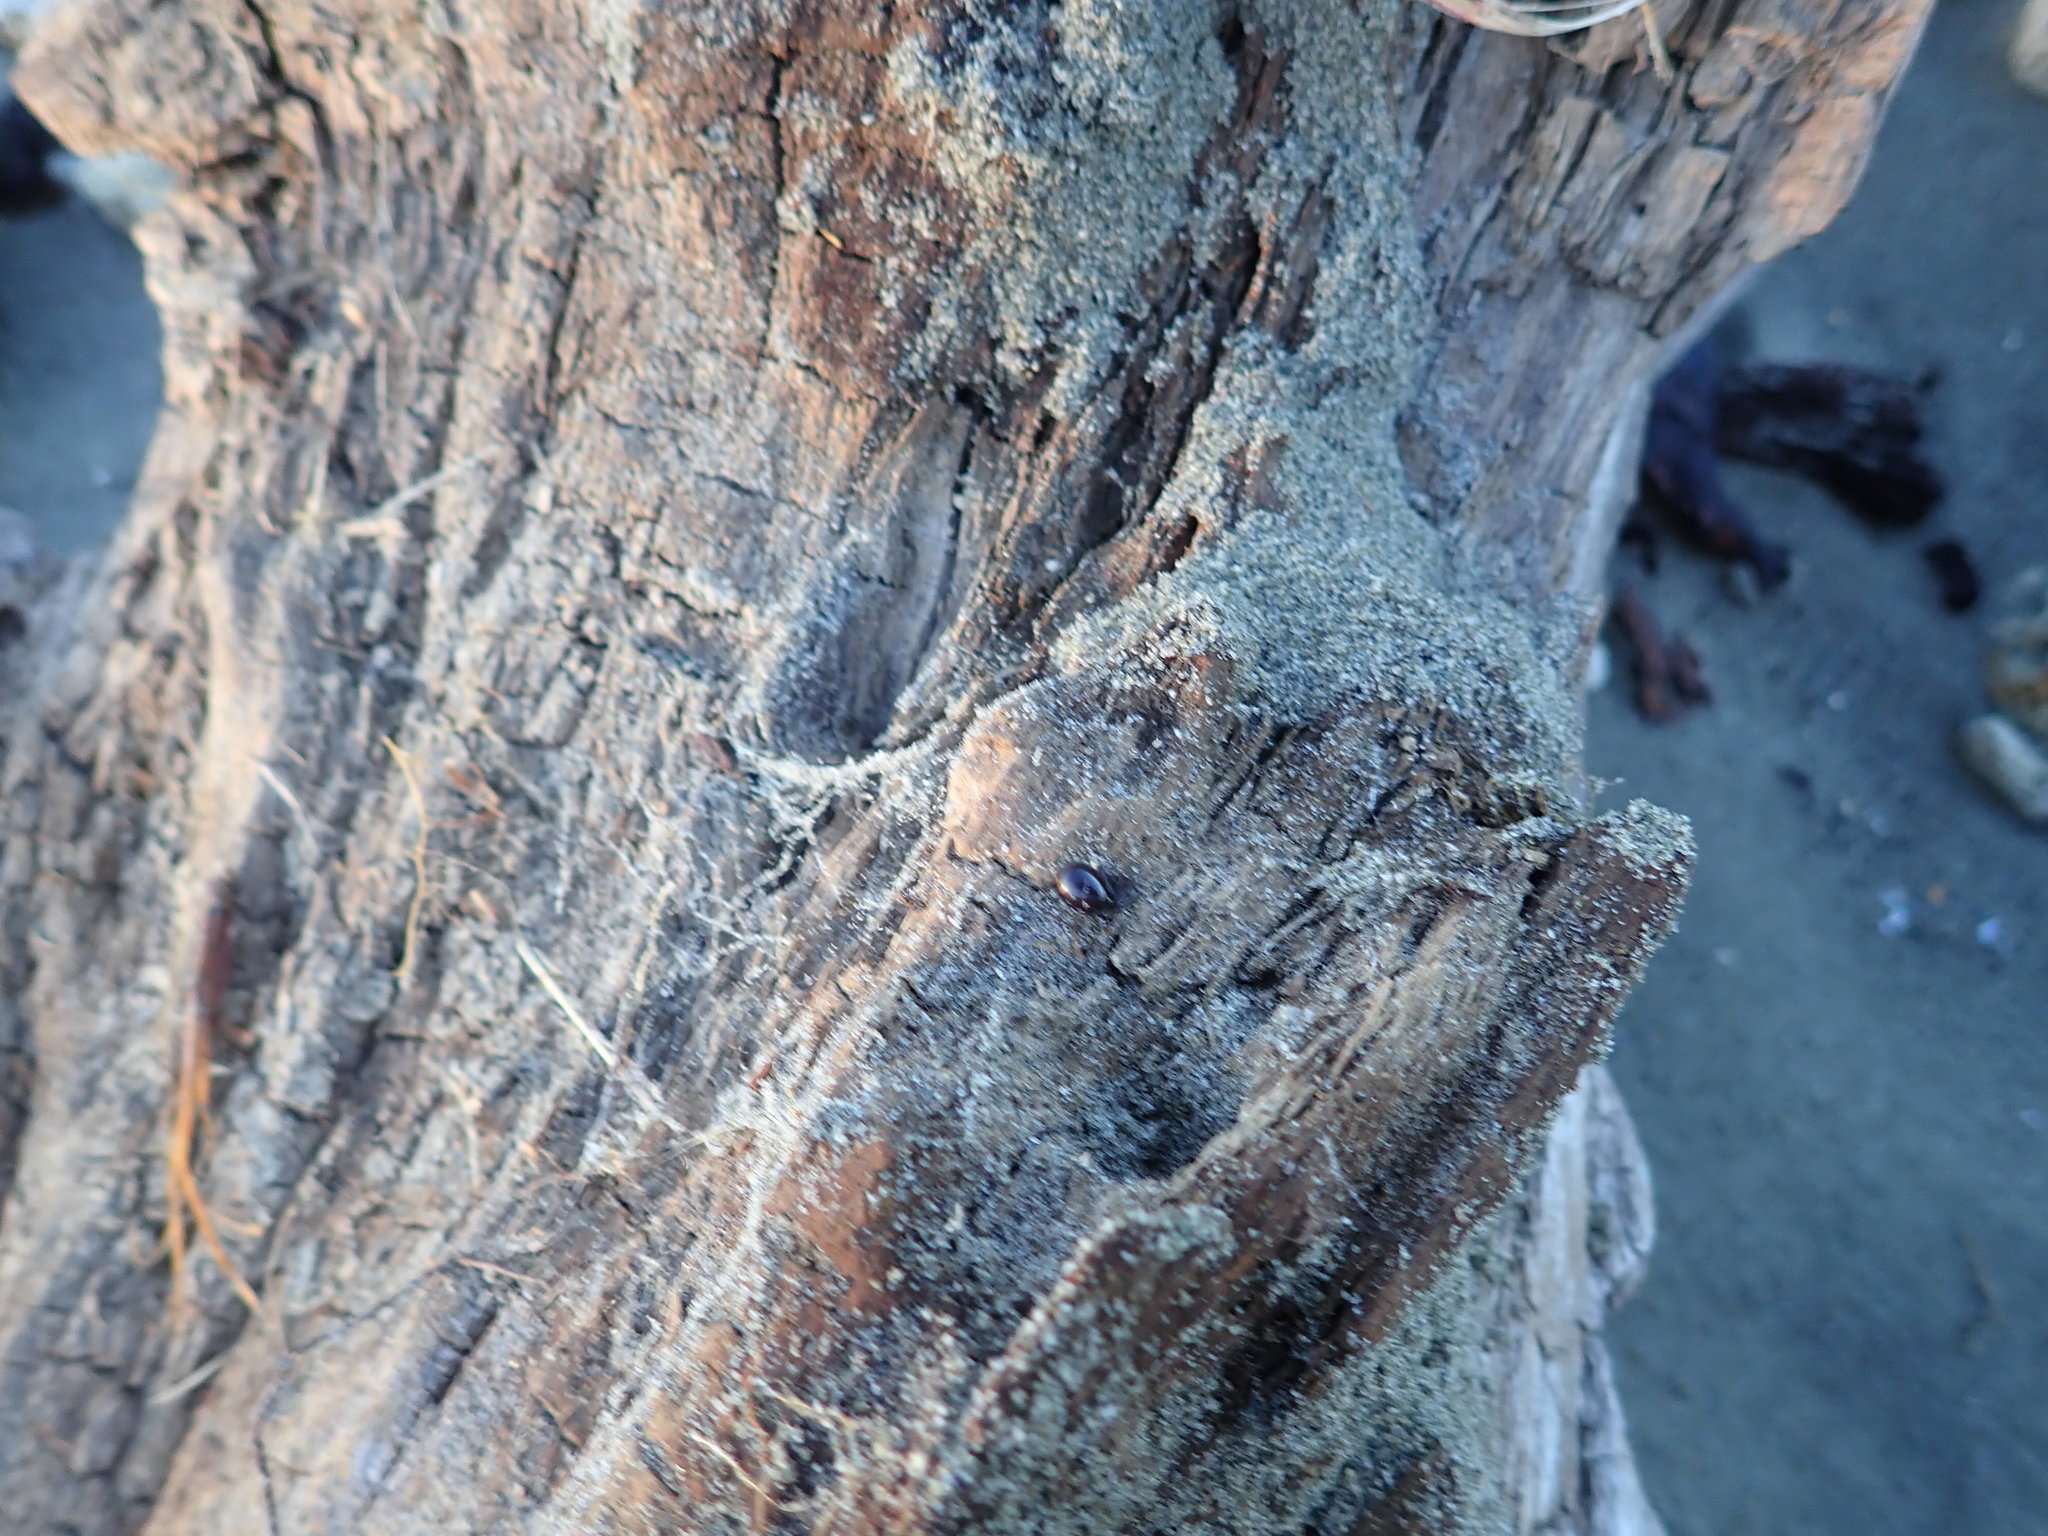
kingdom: Animalia
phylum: Arthropoda
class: Arachnida
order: Araneae
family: Theridiidae
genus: Steatoda
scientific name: Steatoda capensis
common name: Cobweb weaver
